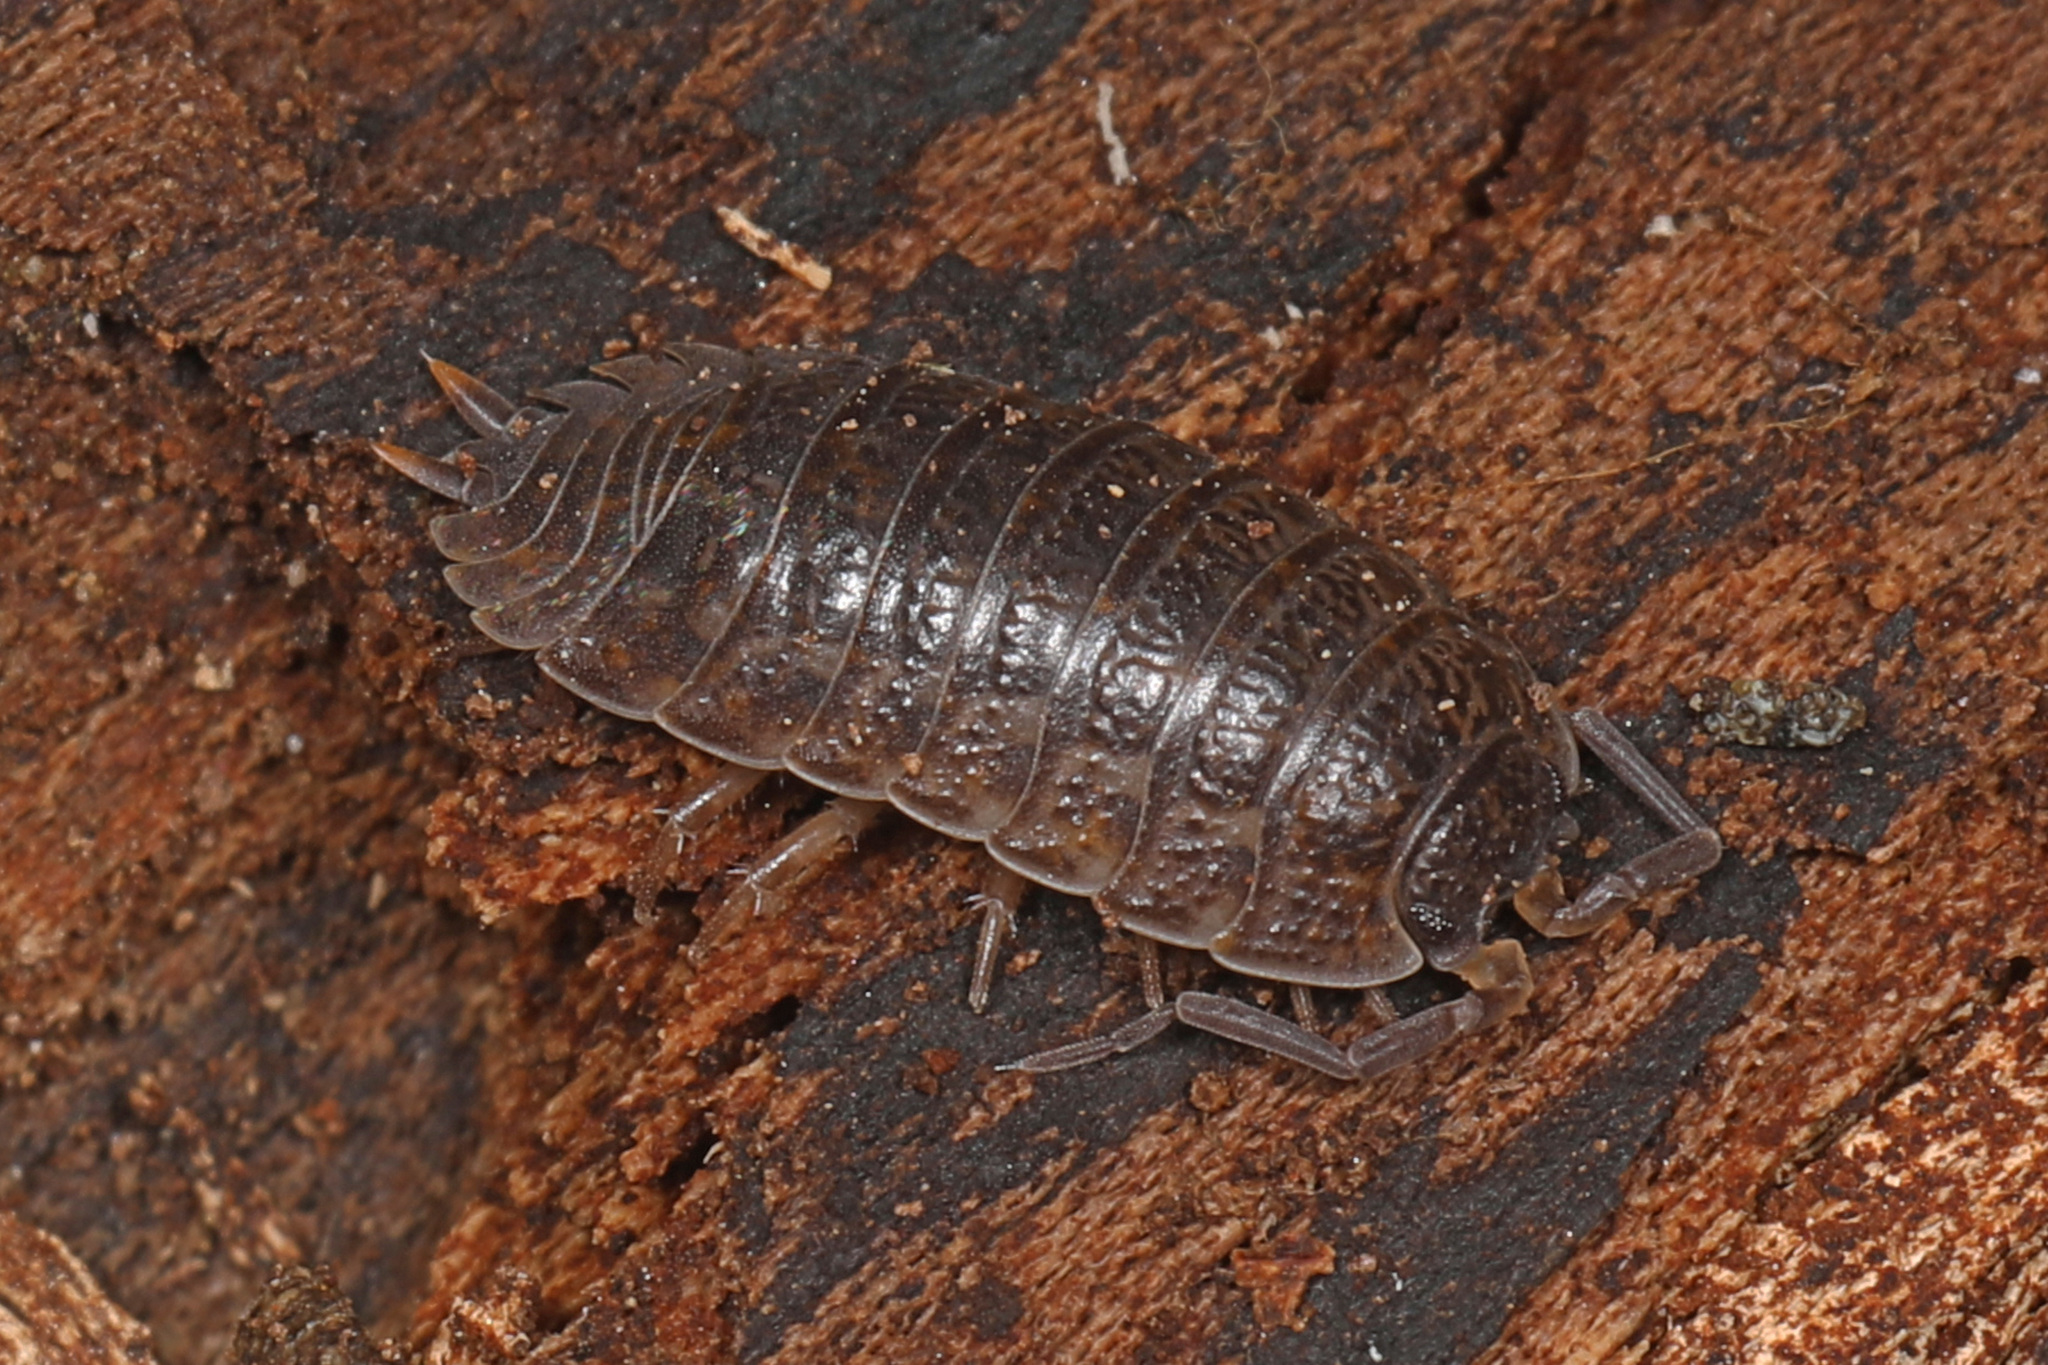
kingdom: Animalia
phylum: Arthropoda
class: Malacostraca
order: Isopoda
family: Trachelipodidae
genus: Trachelipus
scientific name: Trachelipus rathkii
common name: Isopod
